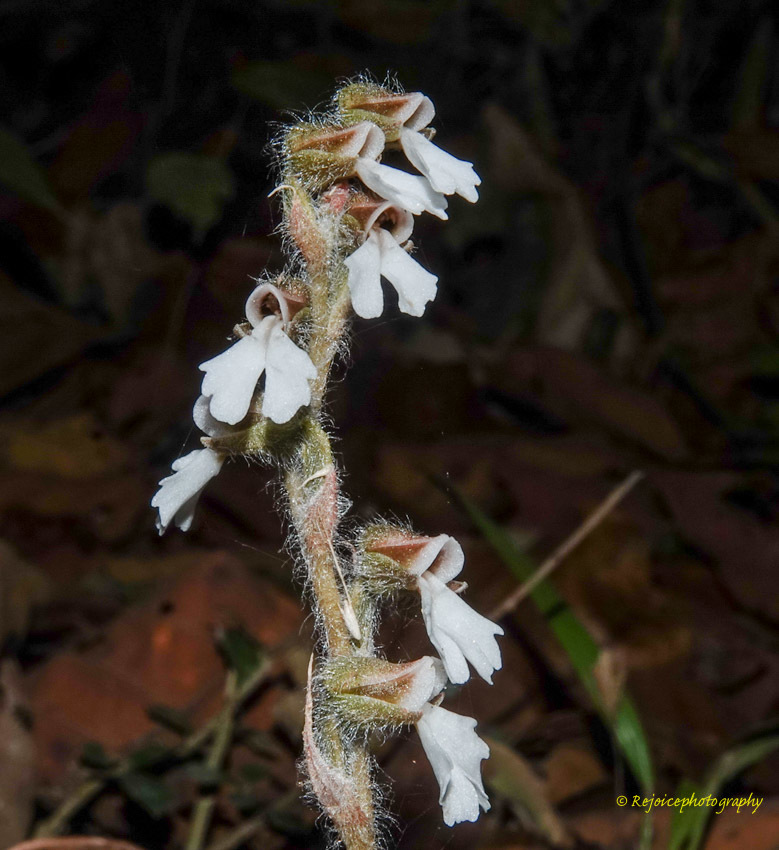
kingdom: Plantae
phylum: Tracheophyta
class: Liliopsida
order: Asparagales
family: Orchidaceae
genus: Zeuxine
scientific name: Zeuxine longilabris
